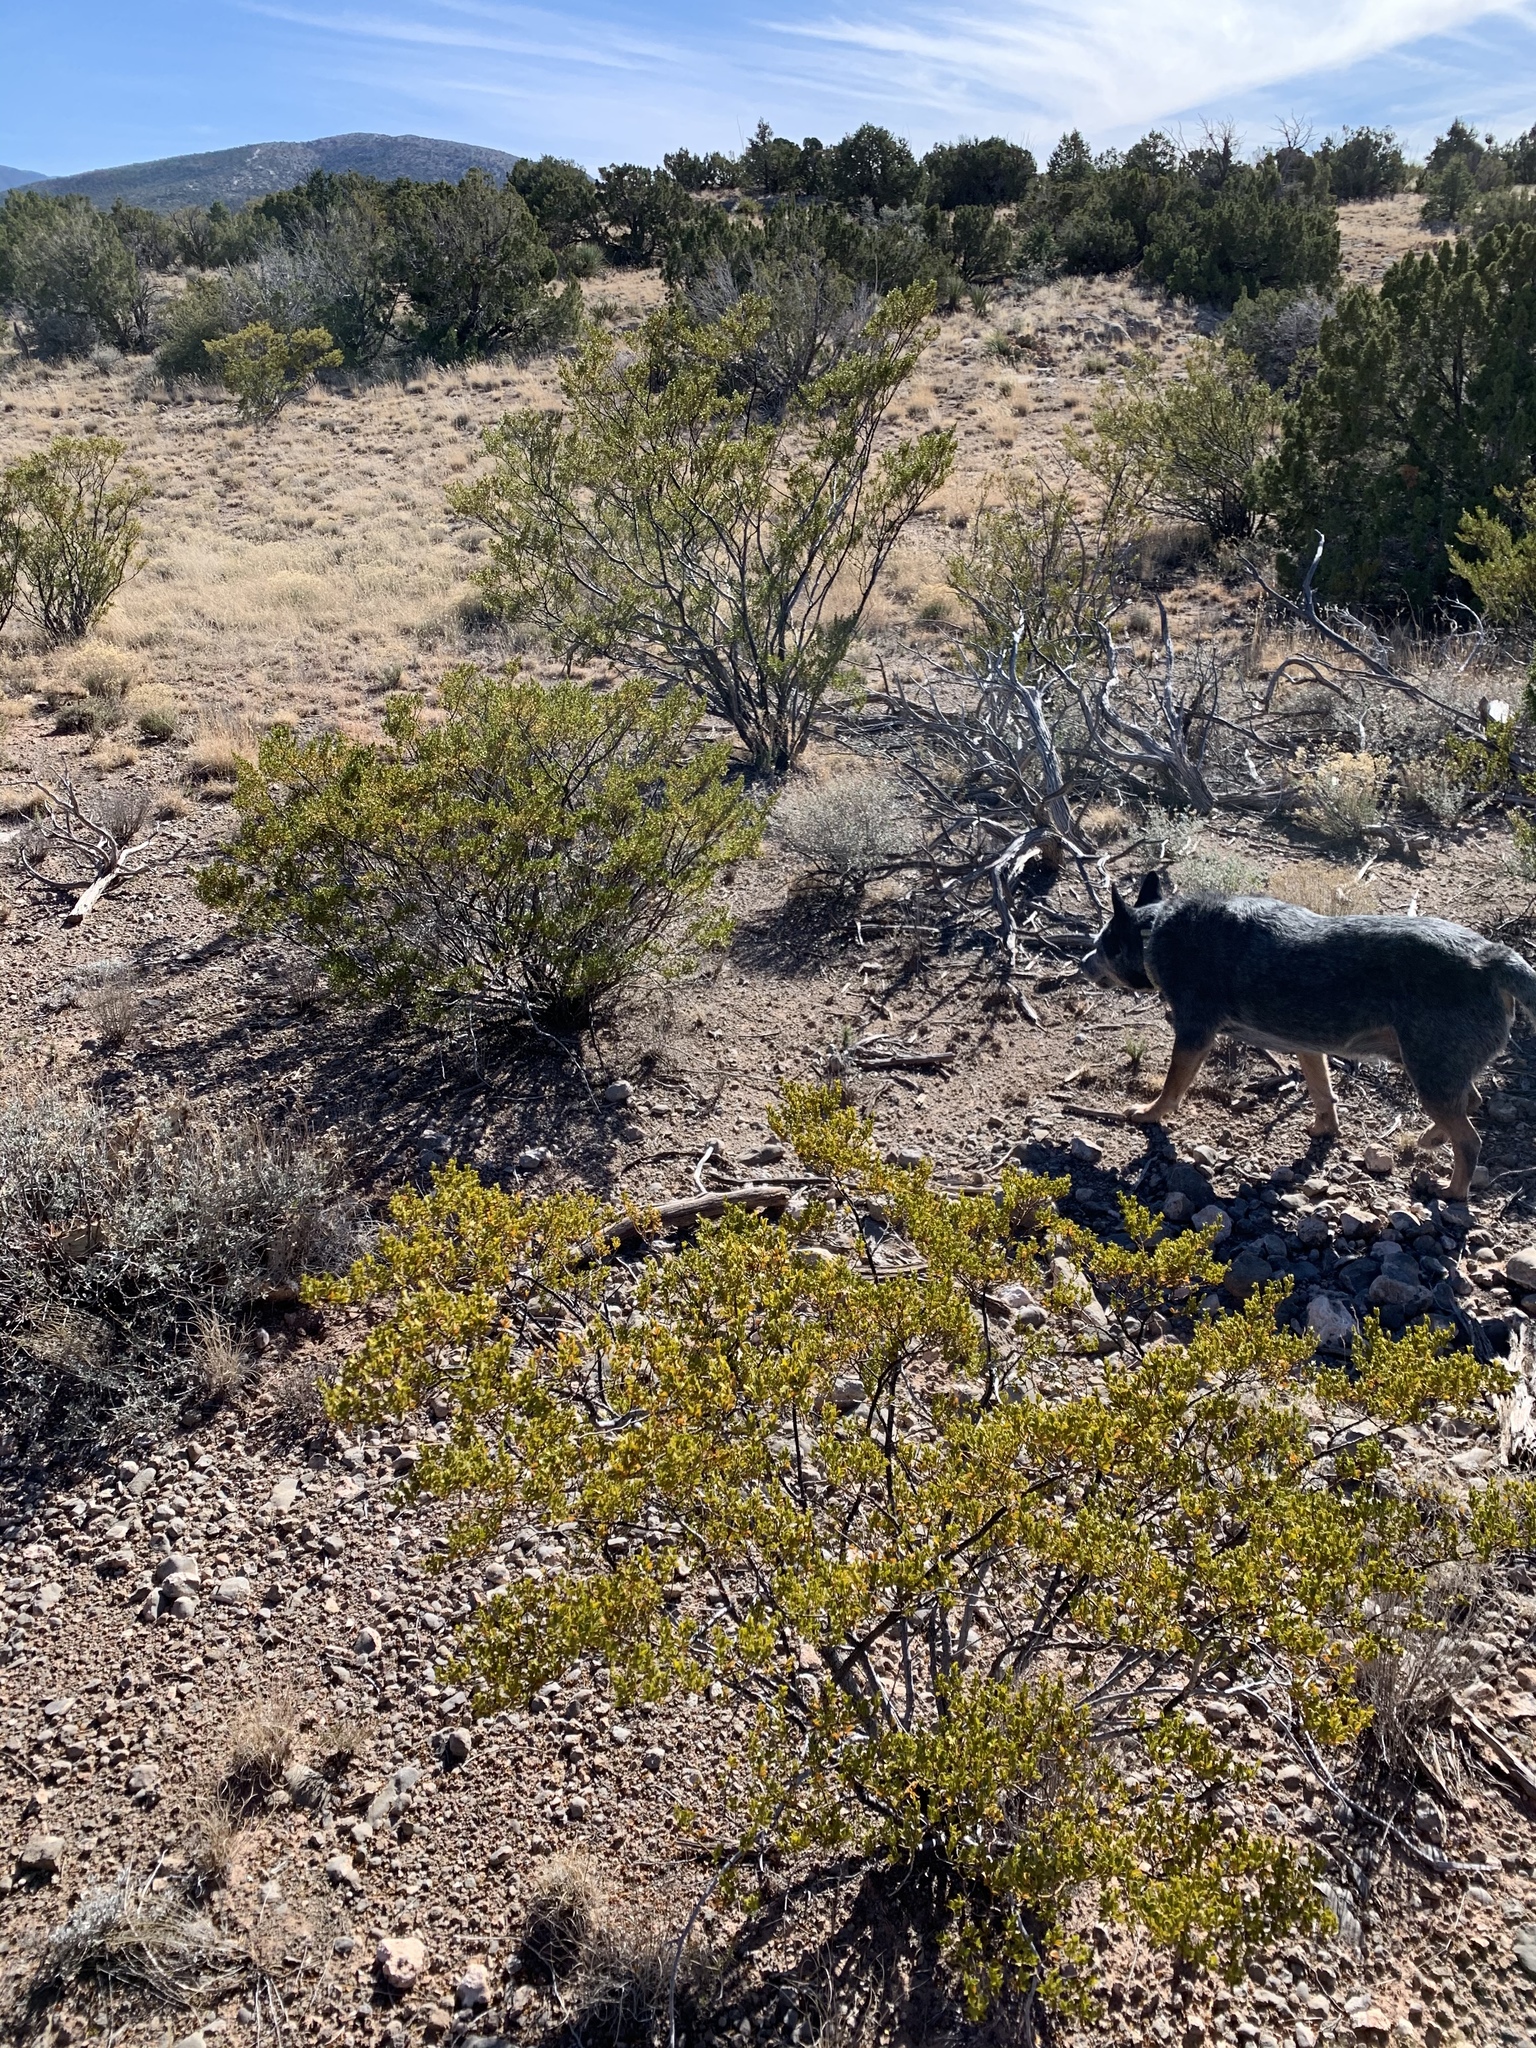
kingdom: Plantae
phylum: Tracheophyta
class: Magnoliopsida
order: Zygophyllales
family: Zygophyllaceae
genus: Larrea
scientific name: Larrea tridentata
